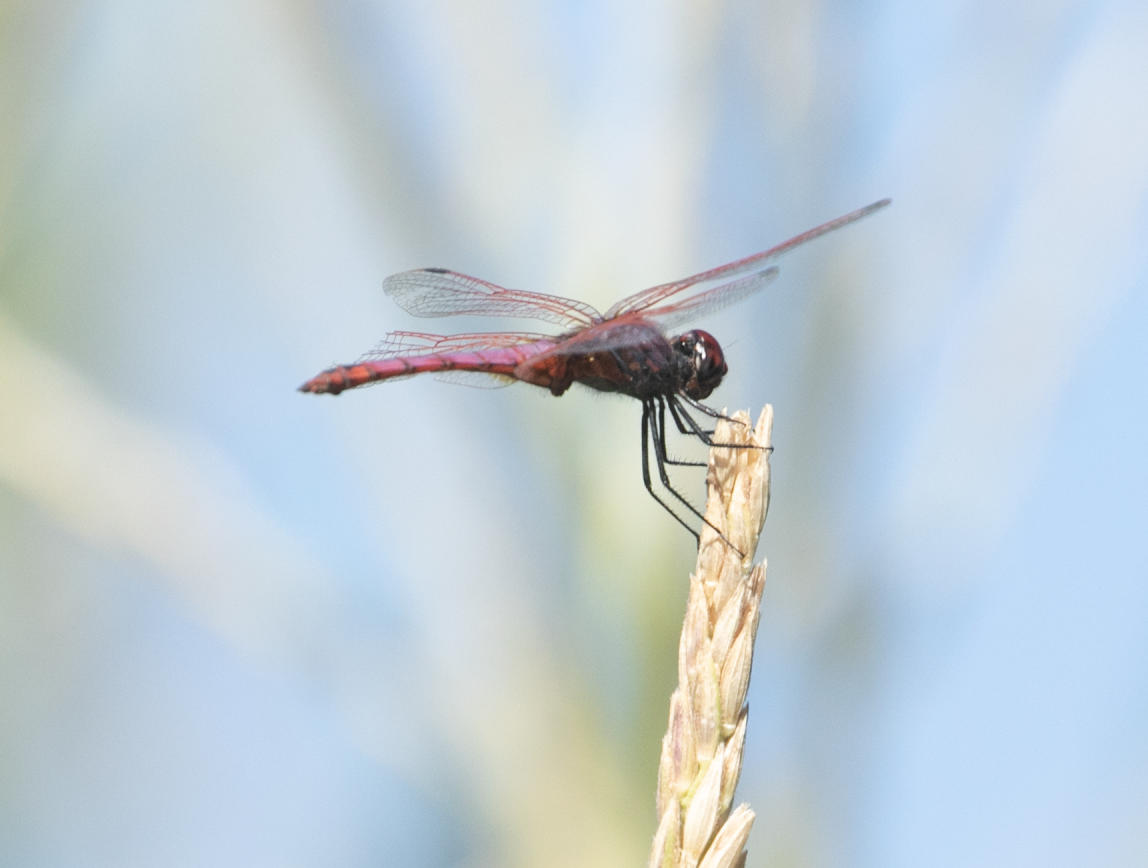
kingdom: Animalia
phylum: Arthropoda
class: Insecta
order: Odonata
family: Libellulidae
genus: Trithemis
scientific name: Trithemis annulata
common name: Violet dropwing
